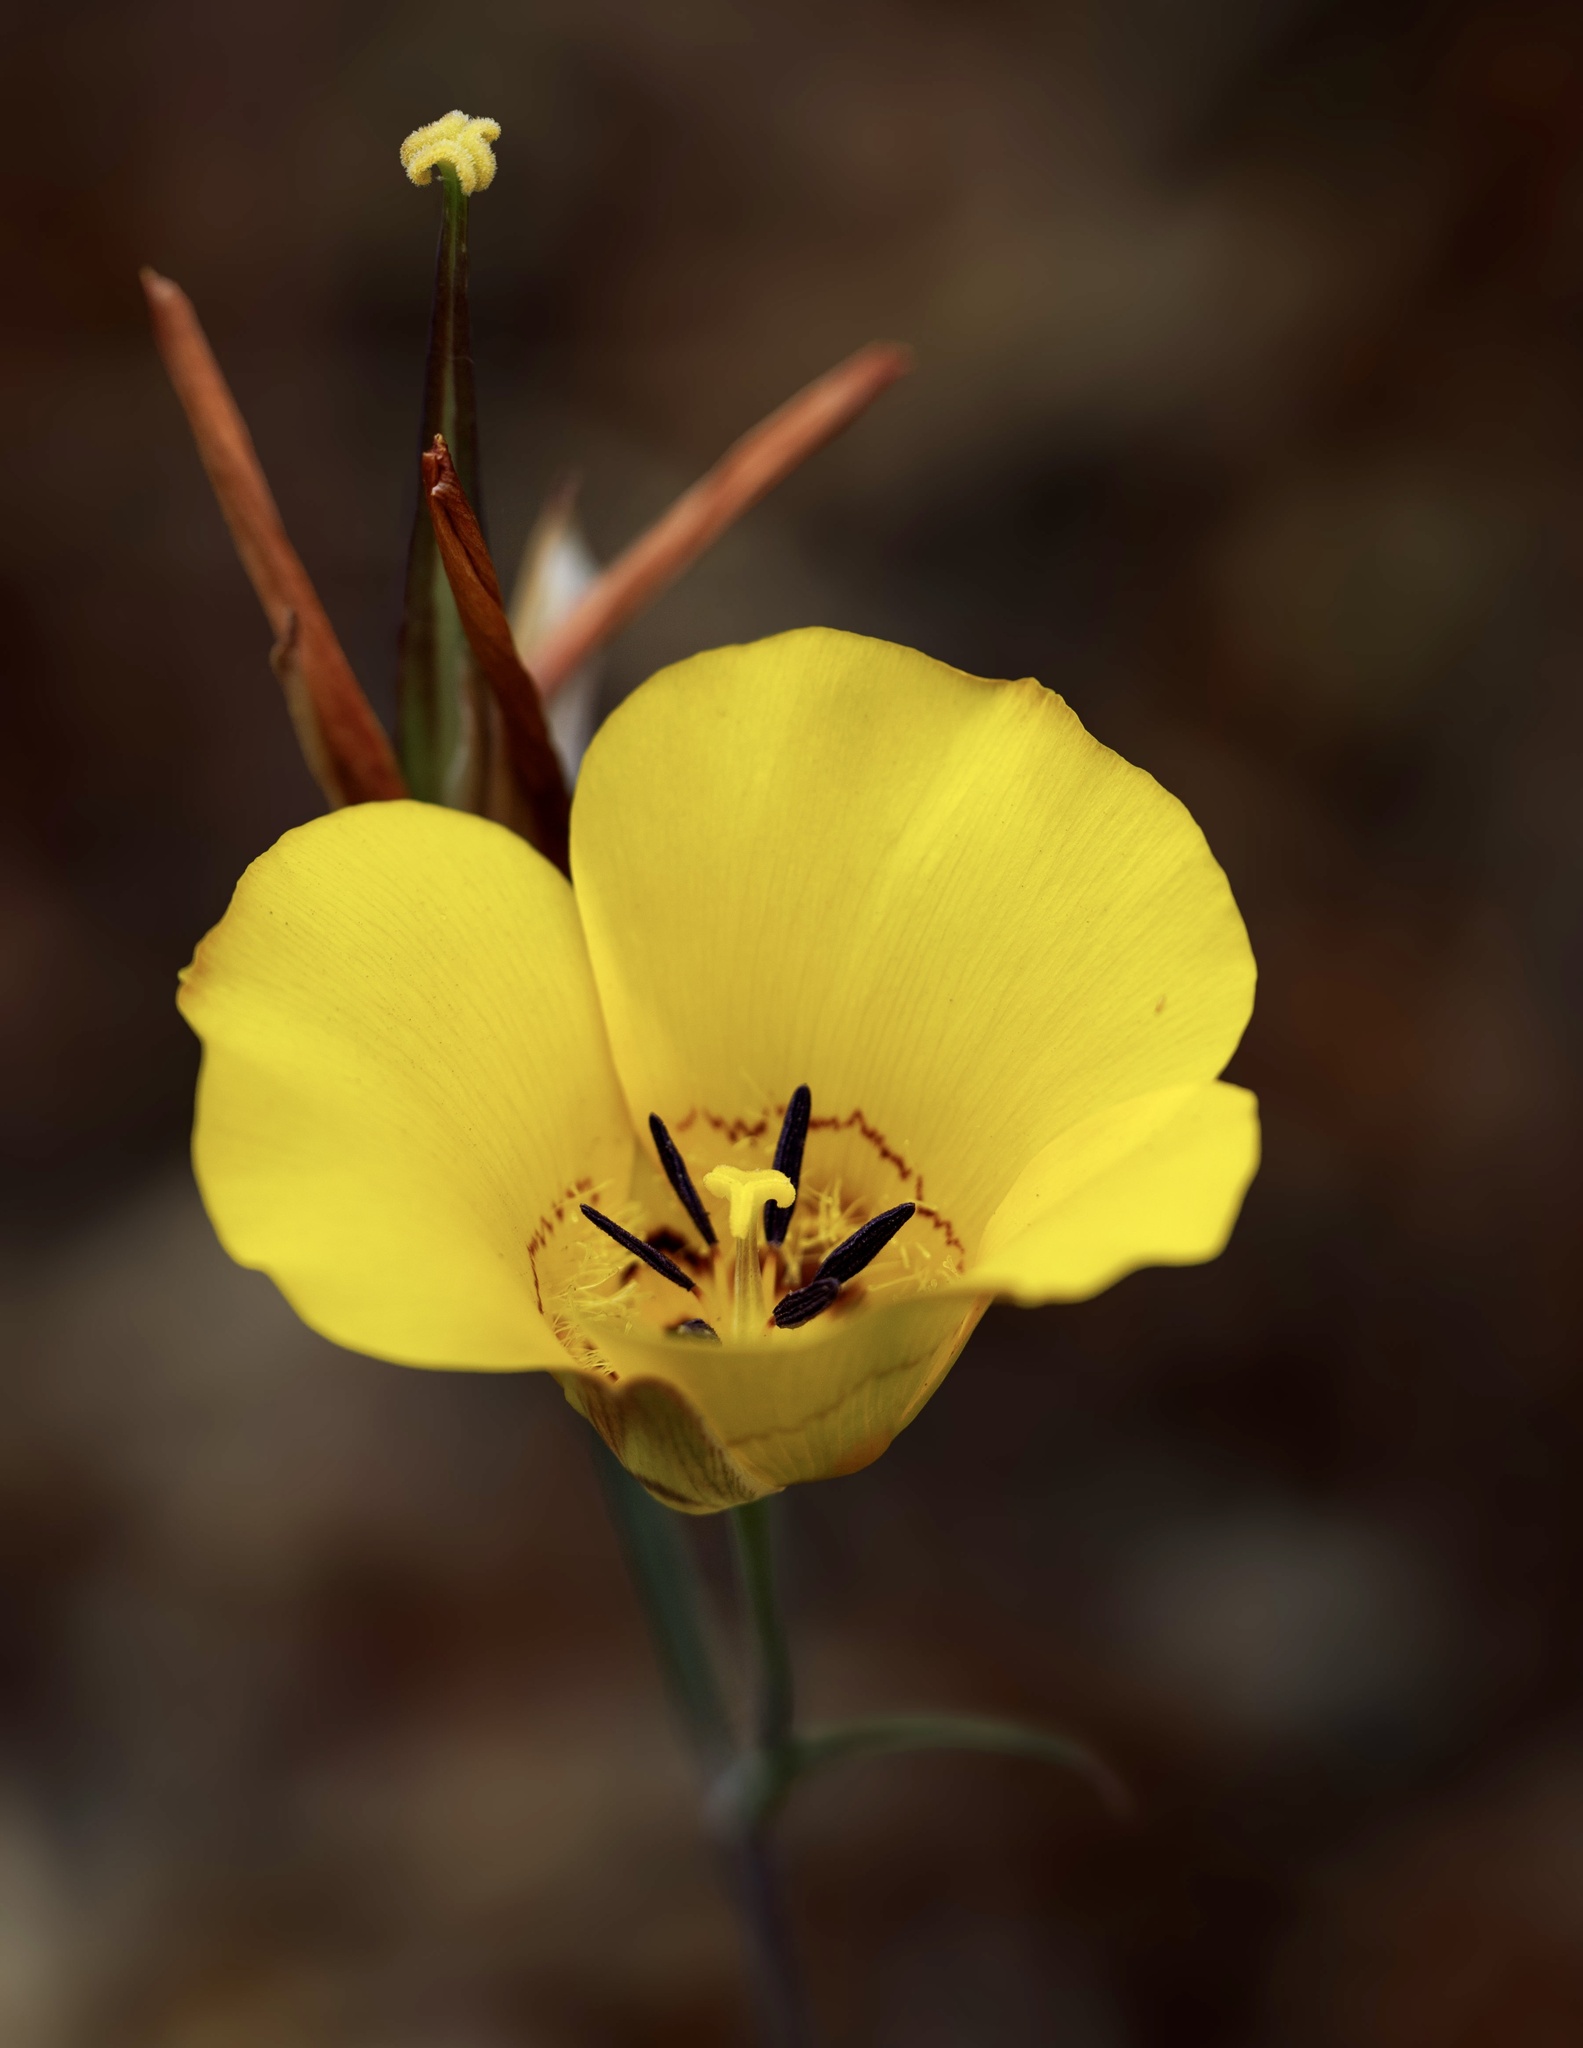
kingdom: Plantae
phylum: Tracheophyta
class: Liliopsida
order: Liliales
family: Liliaceae
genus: Calochortus
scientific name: Calochortus clavatus
